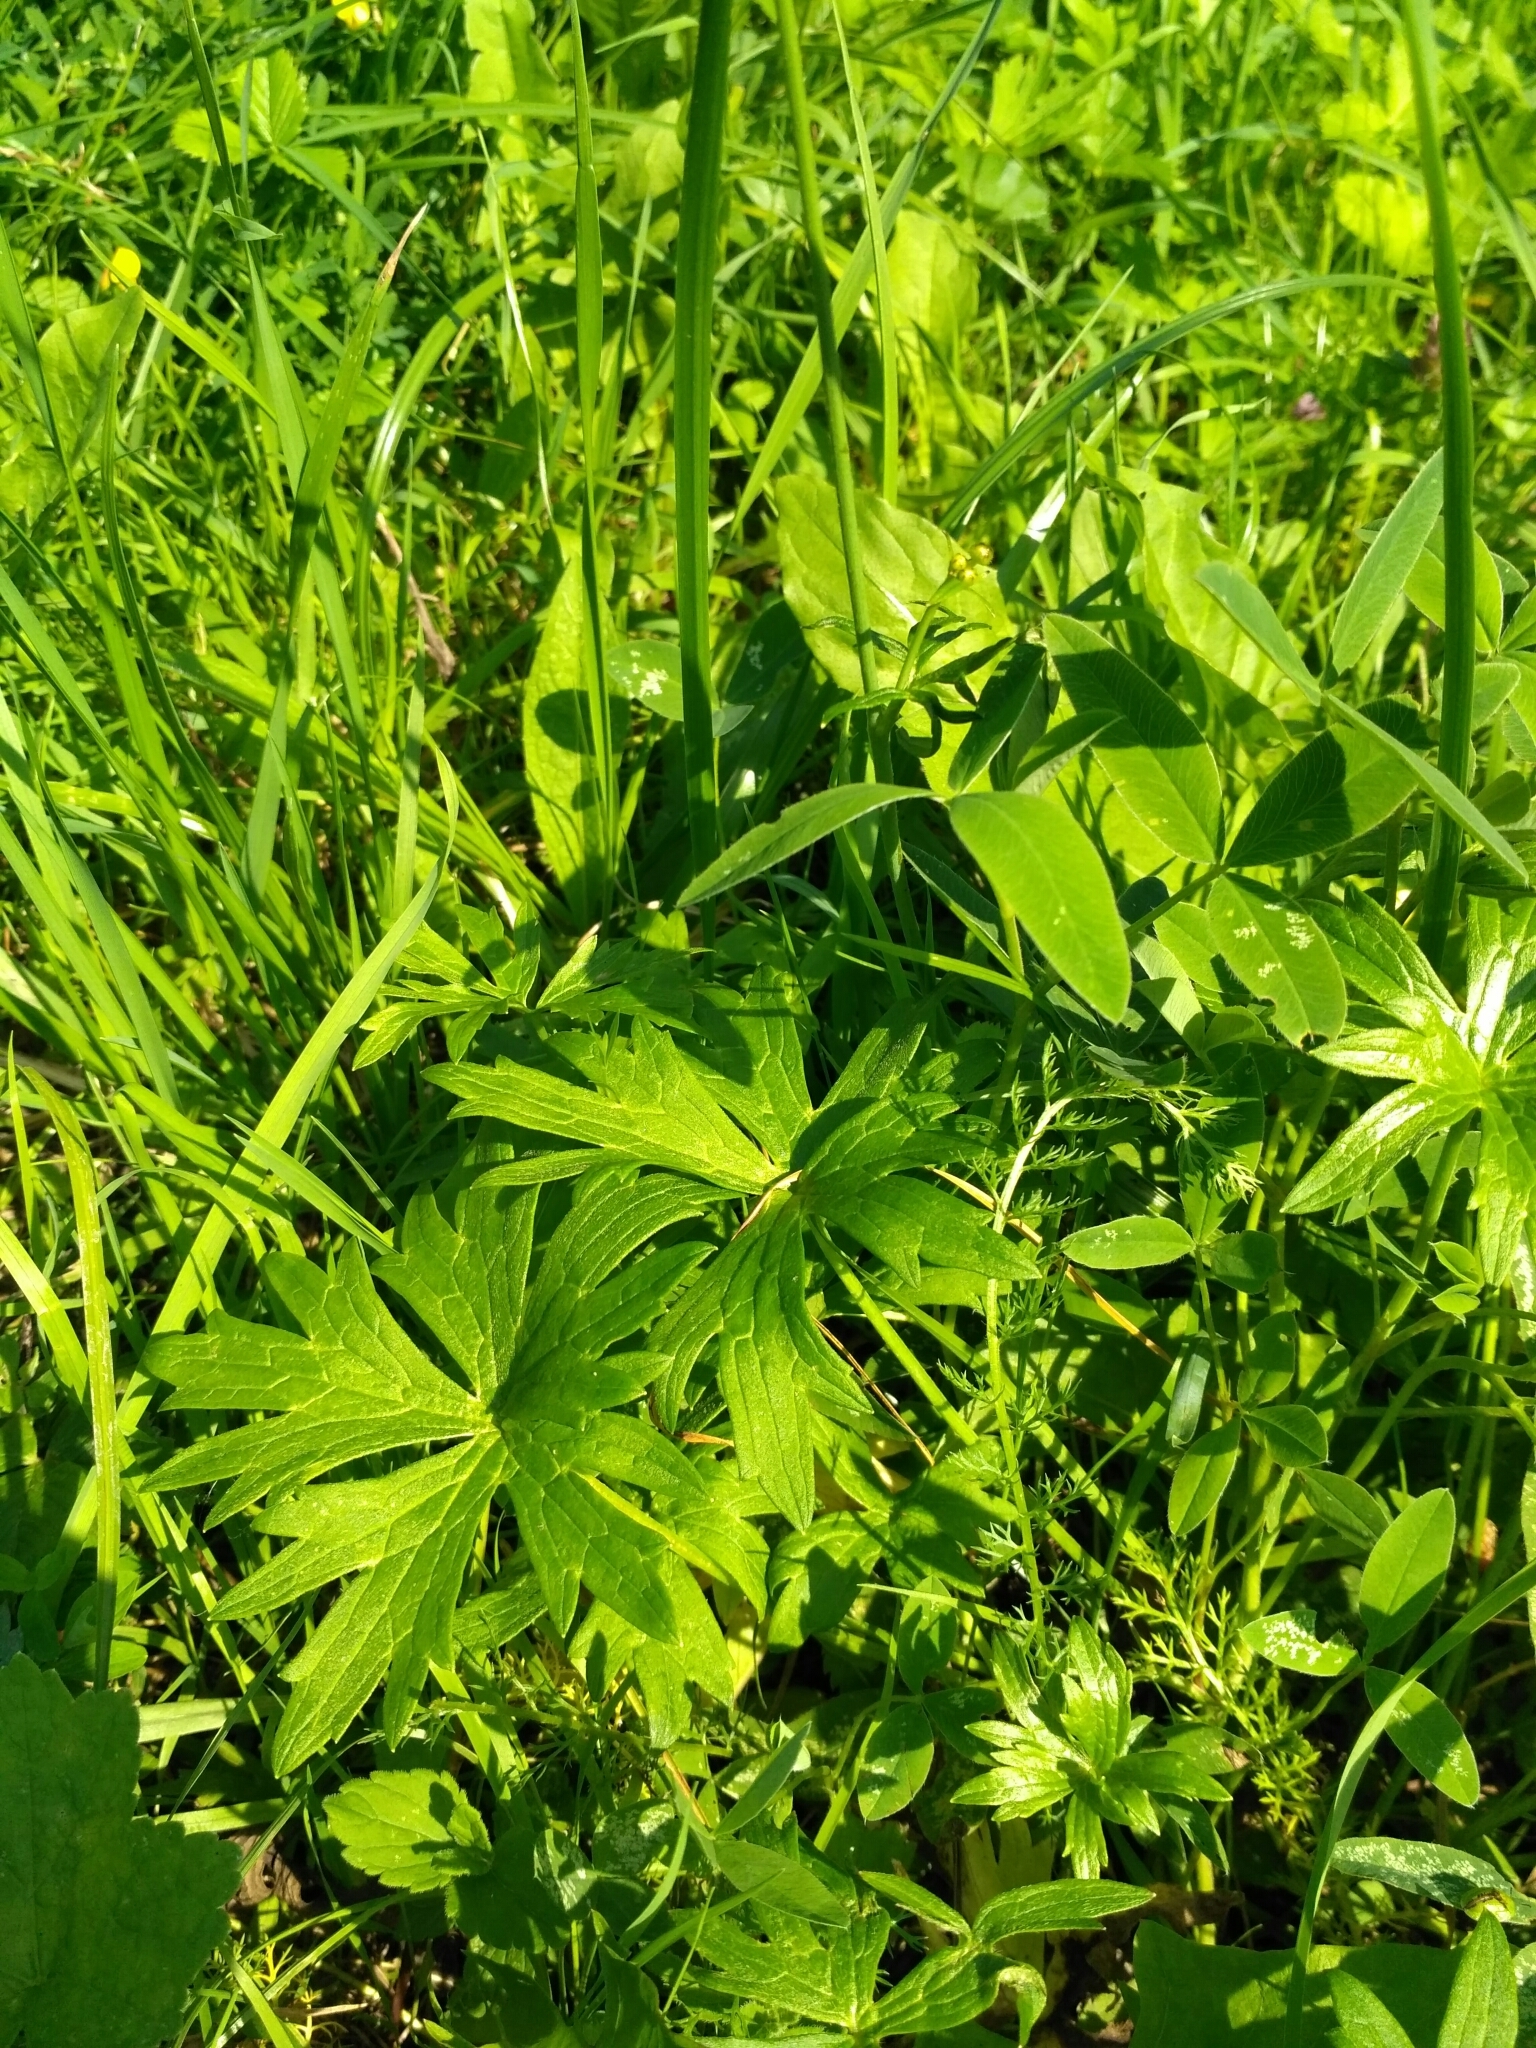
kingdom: Plantae
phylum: Tracheophyta
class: Magnoliopsida
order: Ranunculales
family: Ranunculaceae
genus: Ranunculus
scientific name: Ranunculus acris
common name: Meadow buttercup
